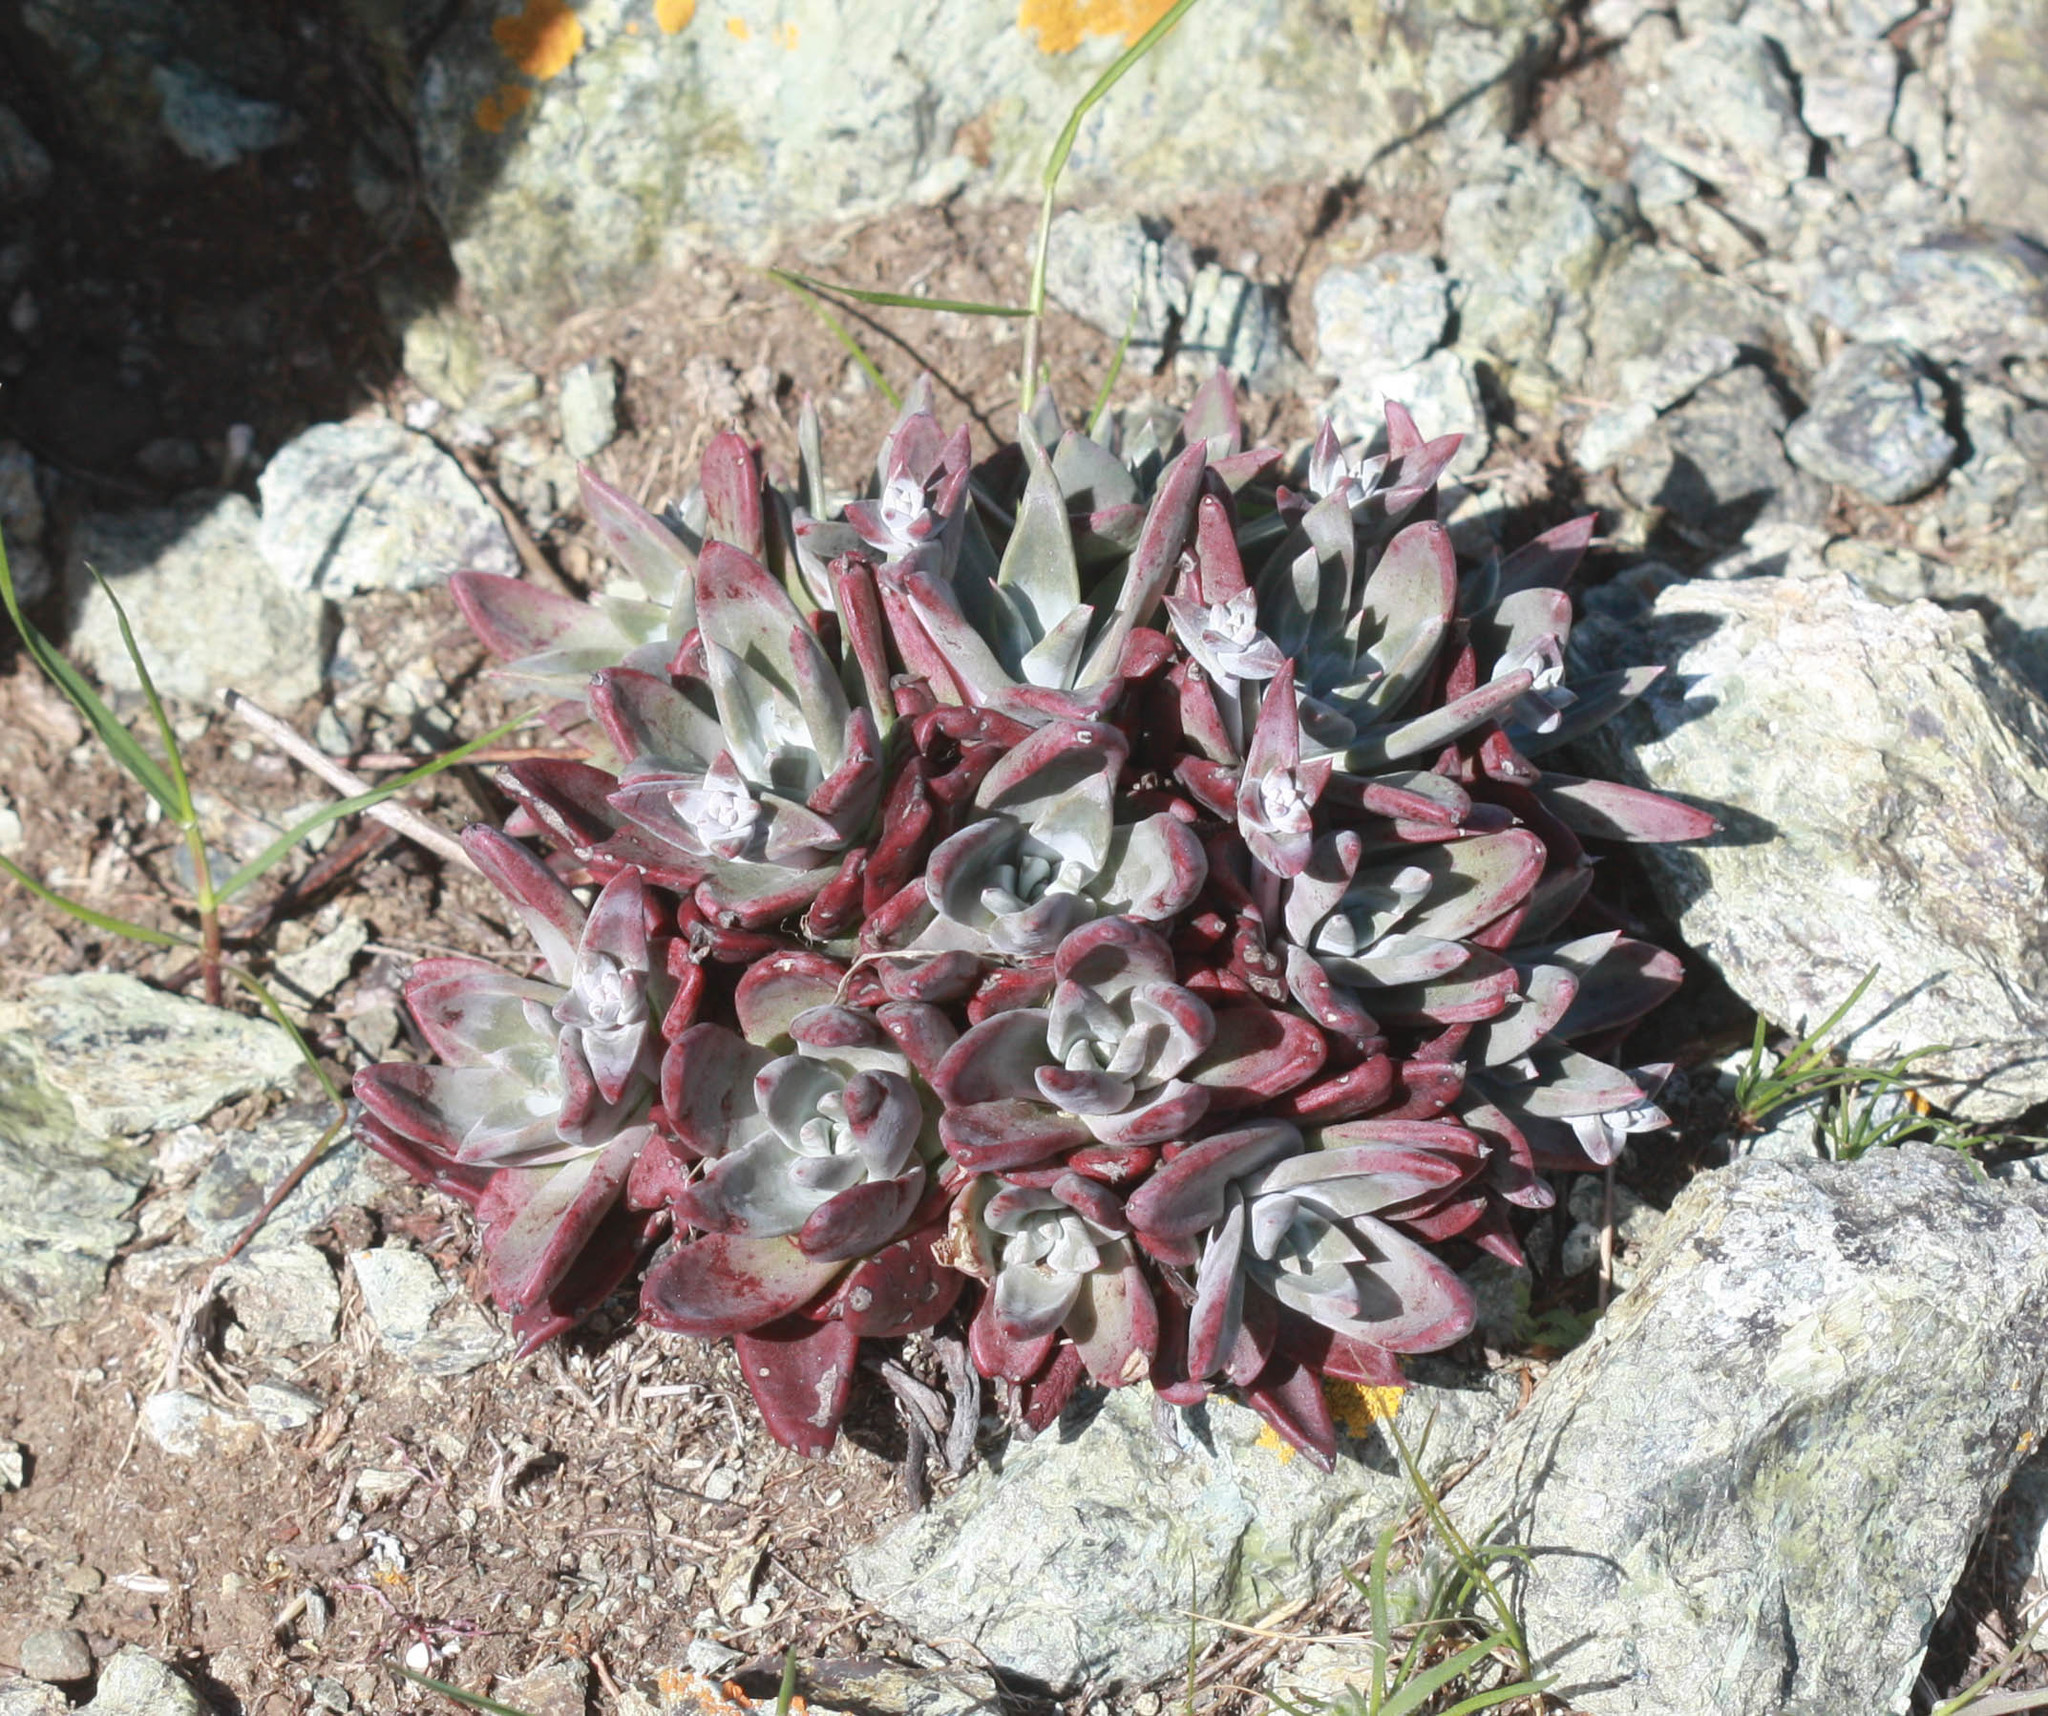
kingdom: Plantae
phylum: Tracheophyta
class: Magnoliopsida
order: Saxifragales
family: Crassulaceae
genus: Dudleya
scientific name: Dudleya farinosa
